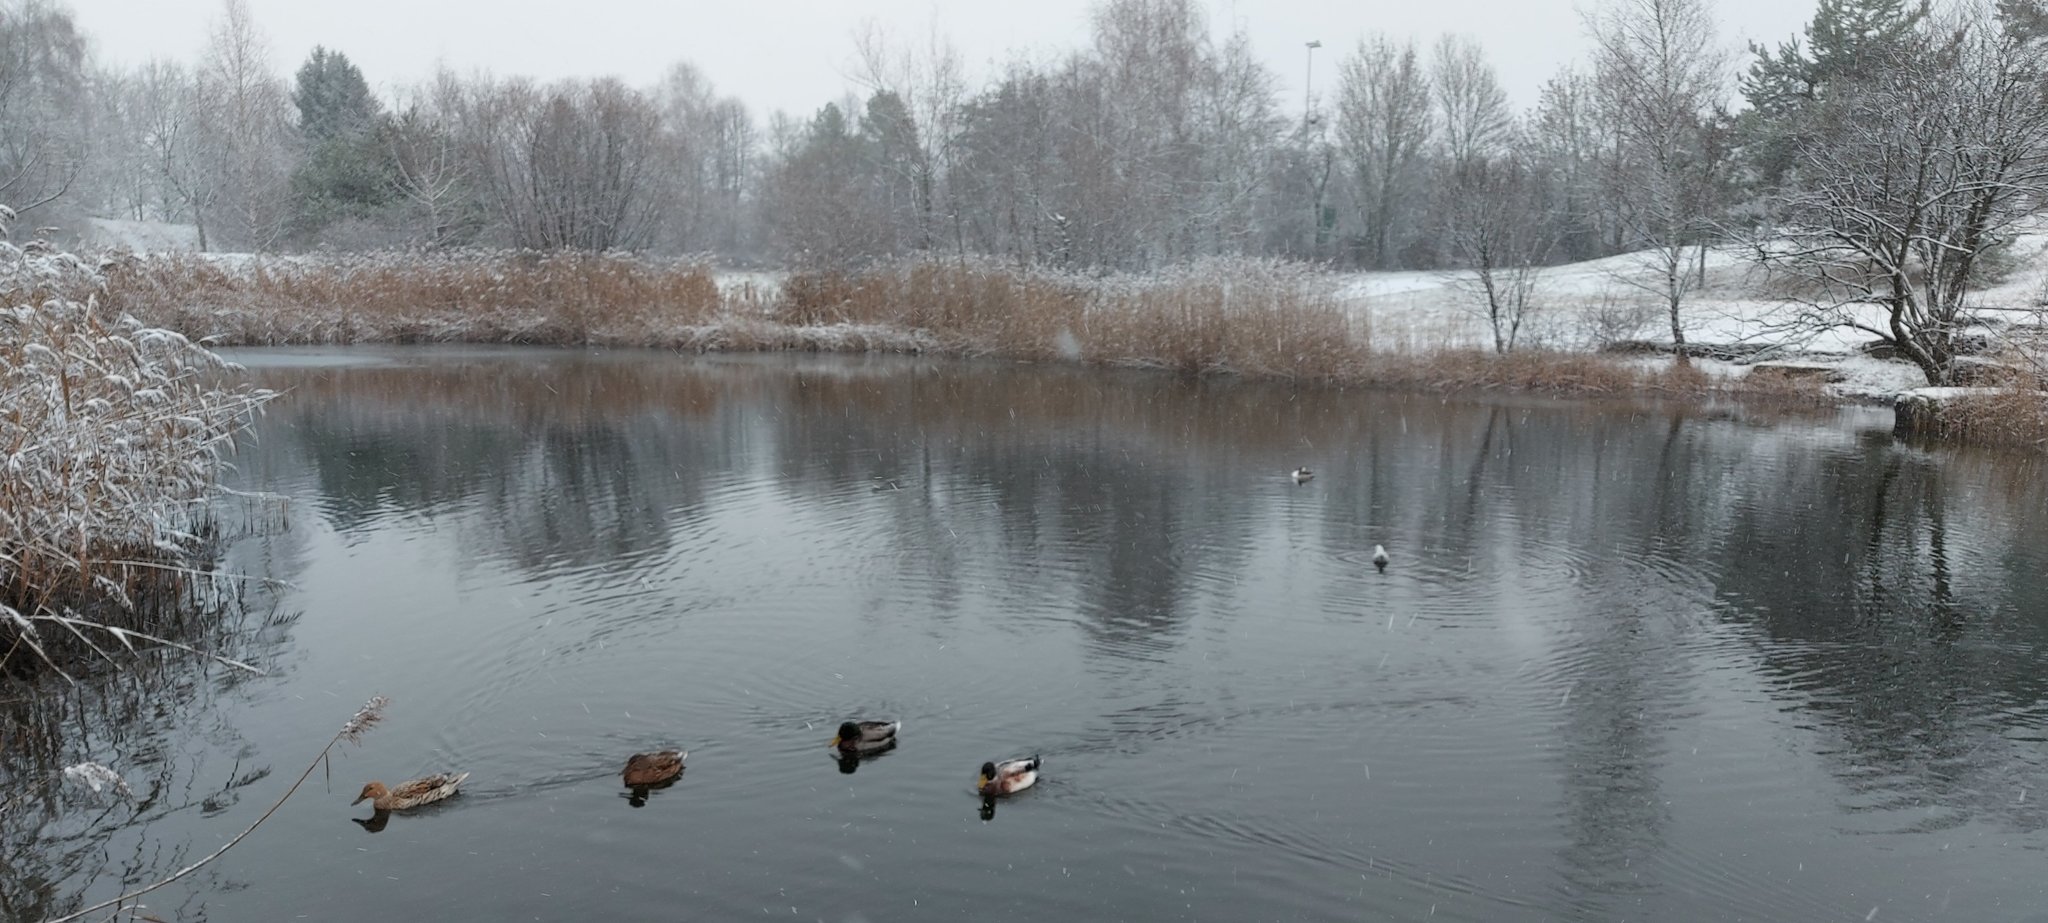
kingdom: Animalia
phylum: Chordata
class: Aves
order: Anseriformes
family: Anatidae
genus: Anas
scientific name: Anas platyrhynchos
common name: Mallard
